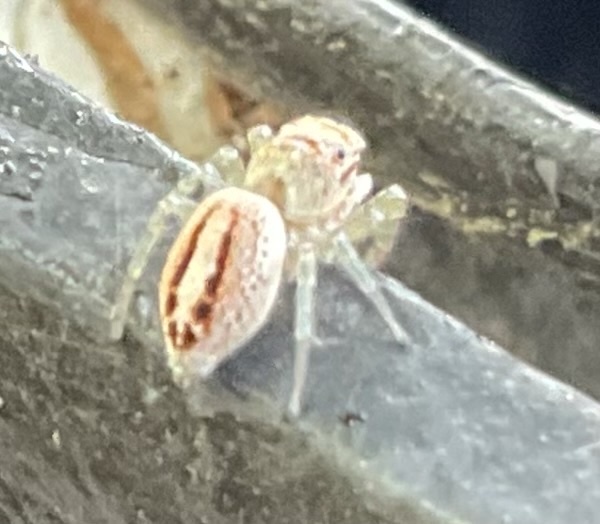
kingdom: Animalia
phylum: Arthropoda
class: Arachnida
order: Araneae
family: Salticidae
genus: Icius
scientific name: Icius hamatus
